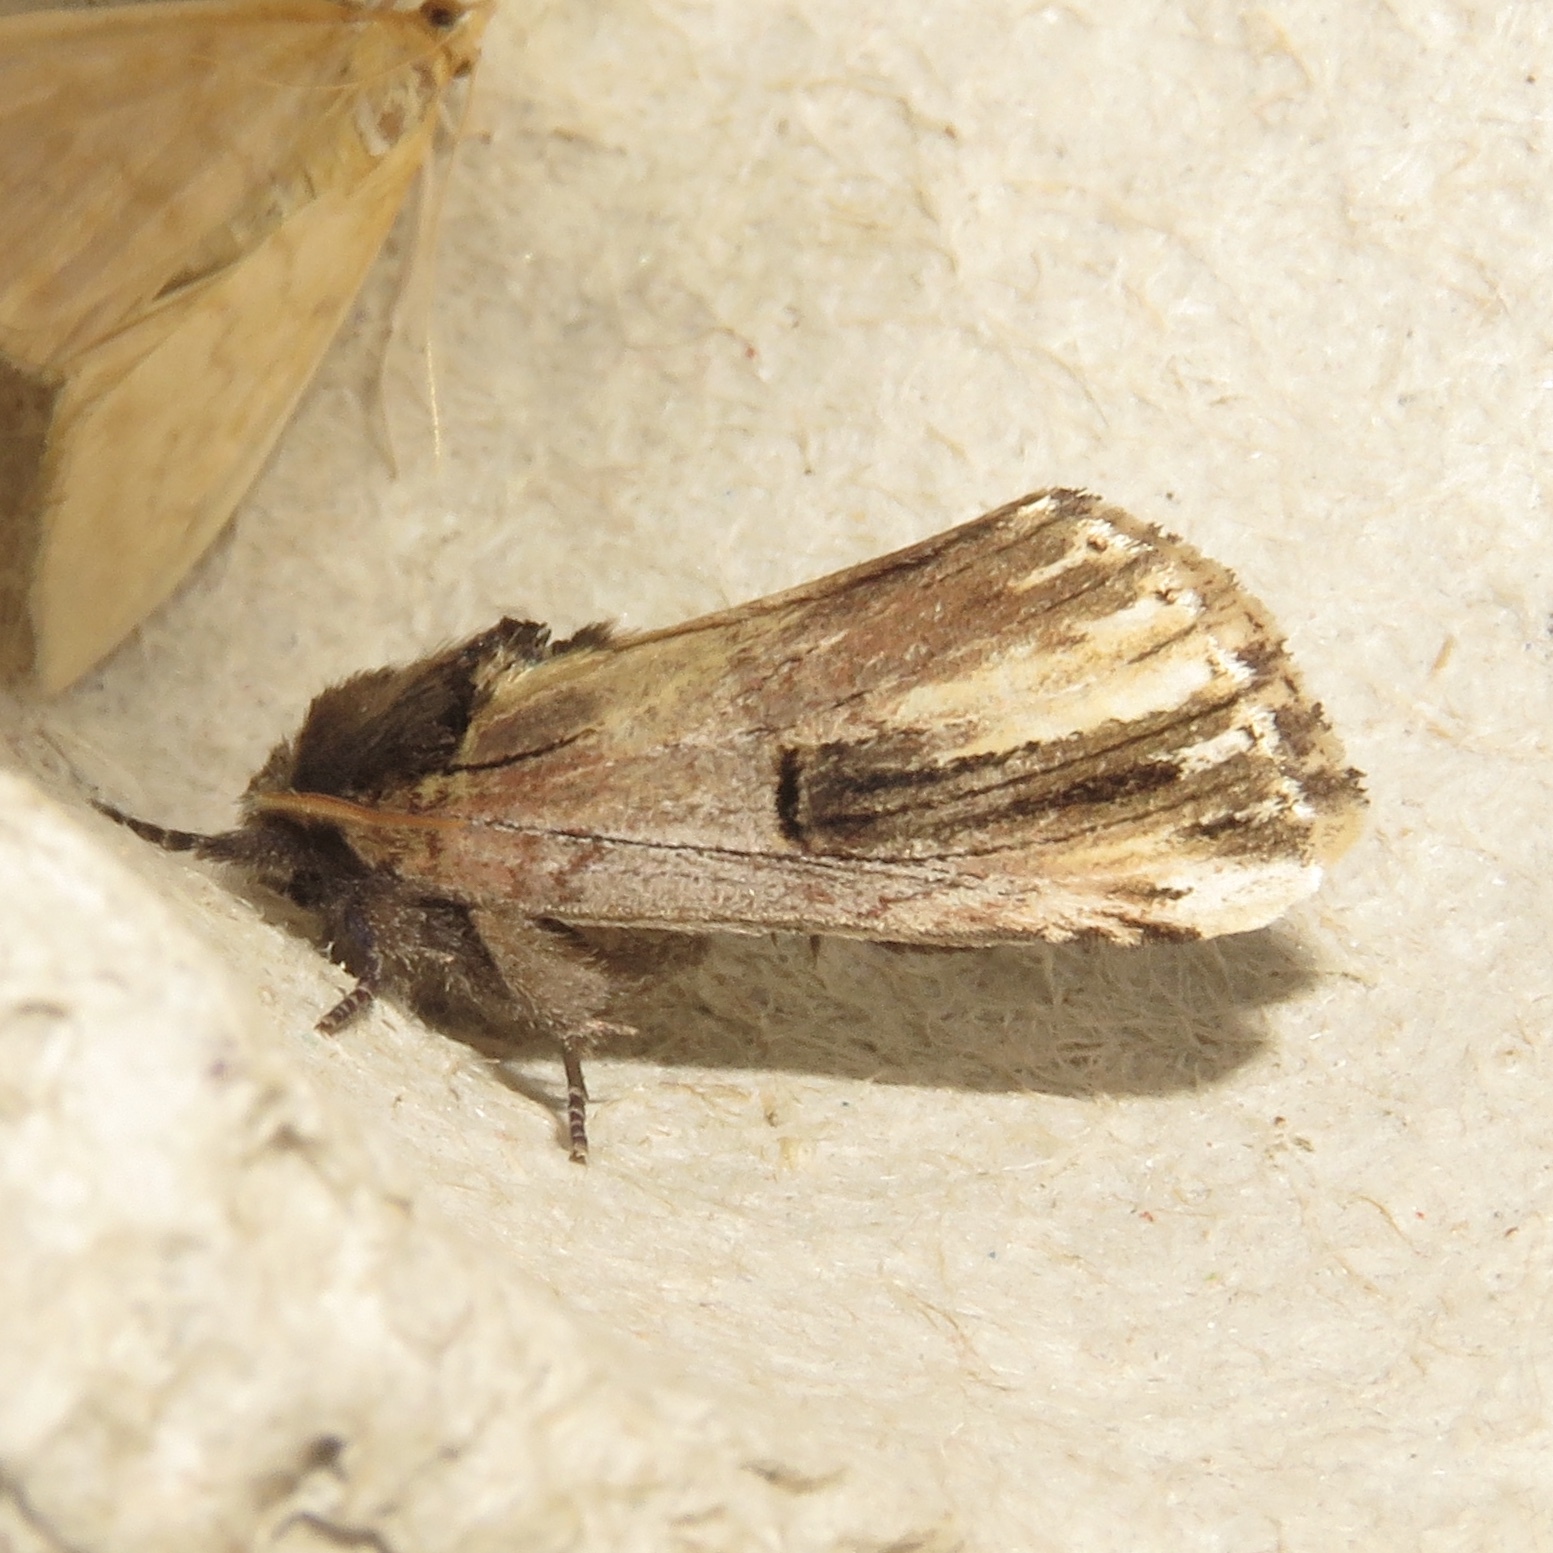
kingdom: Animalia
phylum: Arthropoda
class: Insecta
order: Lepidoptera
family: Notodontidae
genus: Schizura
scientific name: Schizura badia
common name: Chestnut schizura
